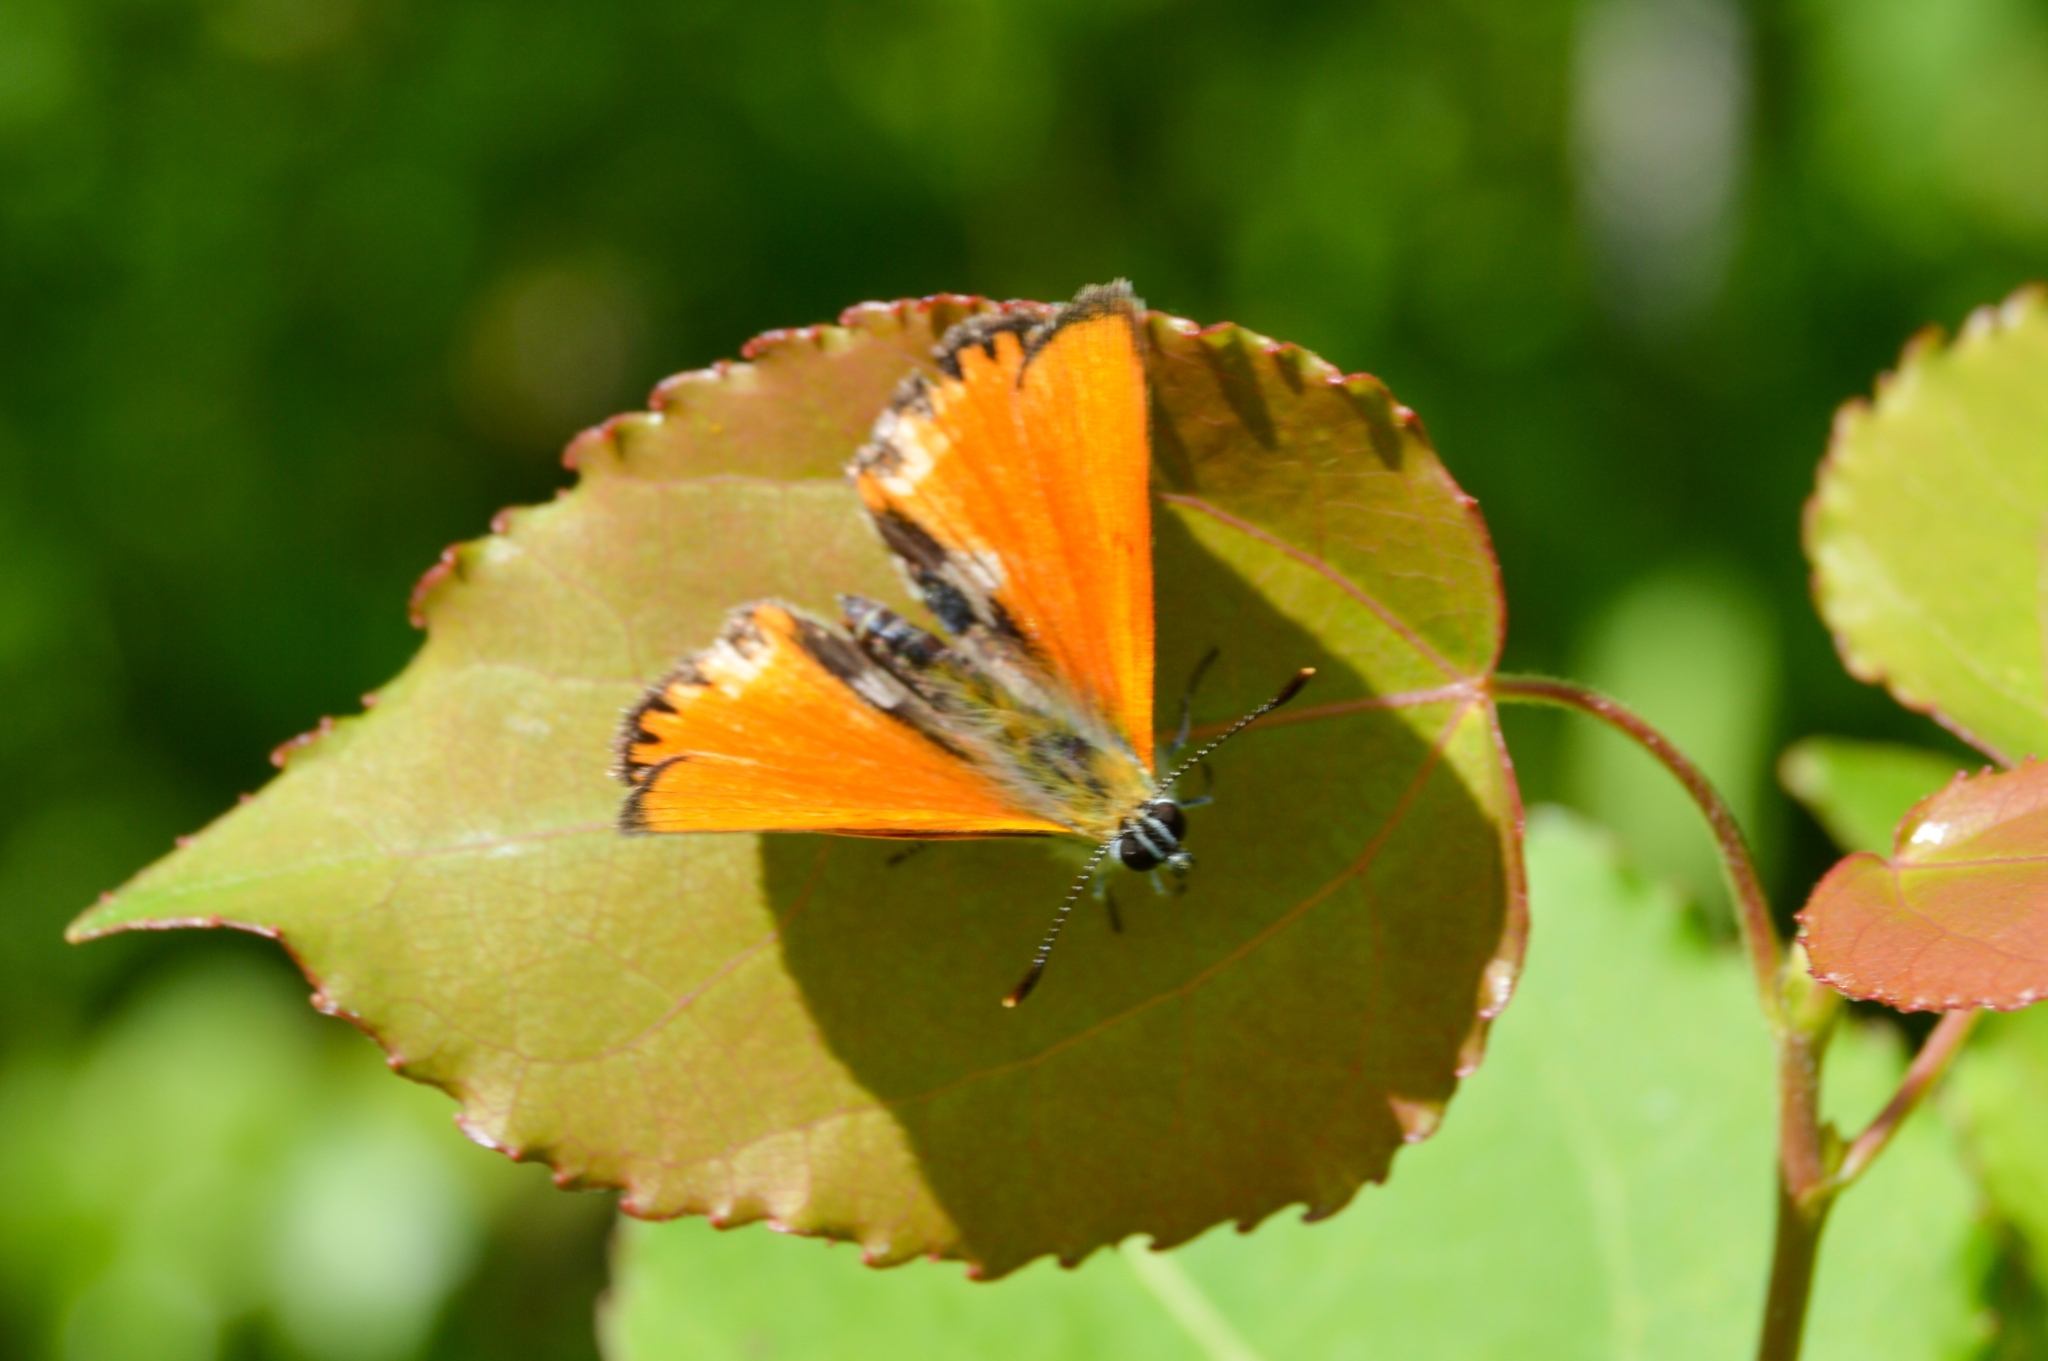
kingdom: Animalia
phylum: Arthropoda
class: Insecta
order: Lepidoptera
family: Lycaenidae
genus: Lycaena
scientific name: Lycaena virgaureae
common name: Scarce copper
